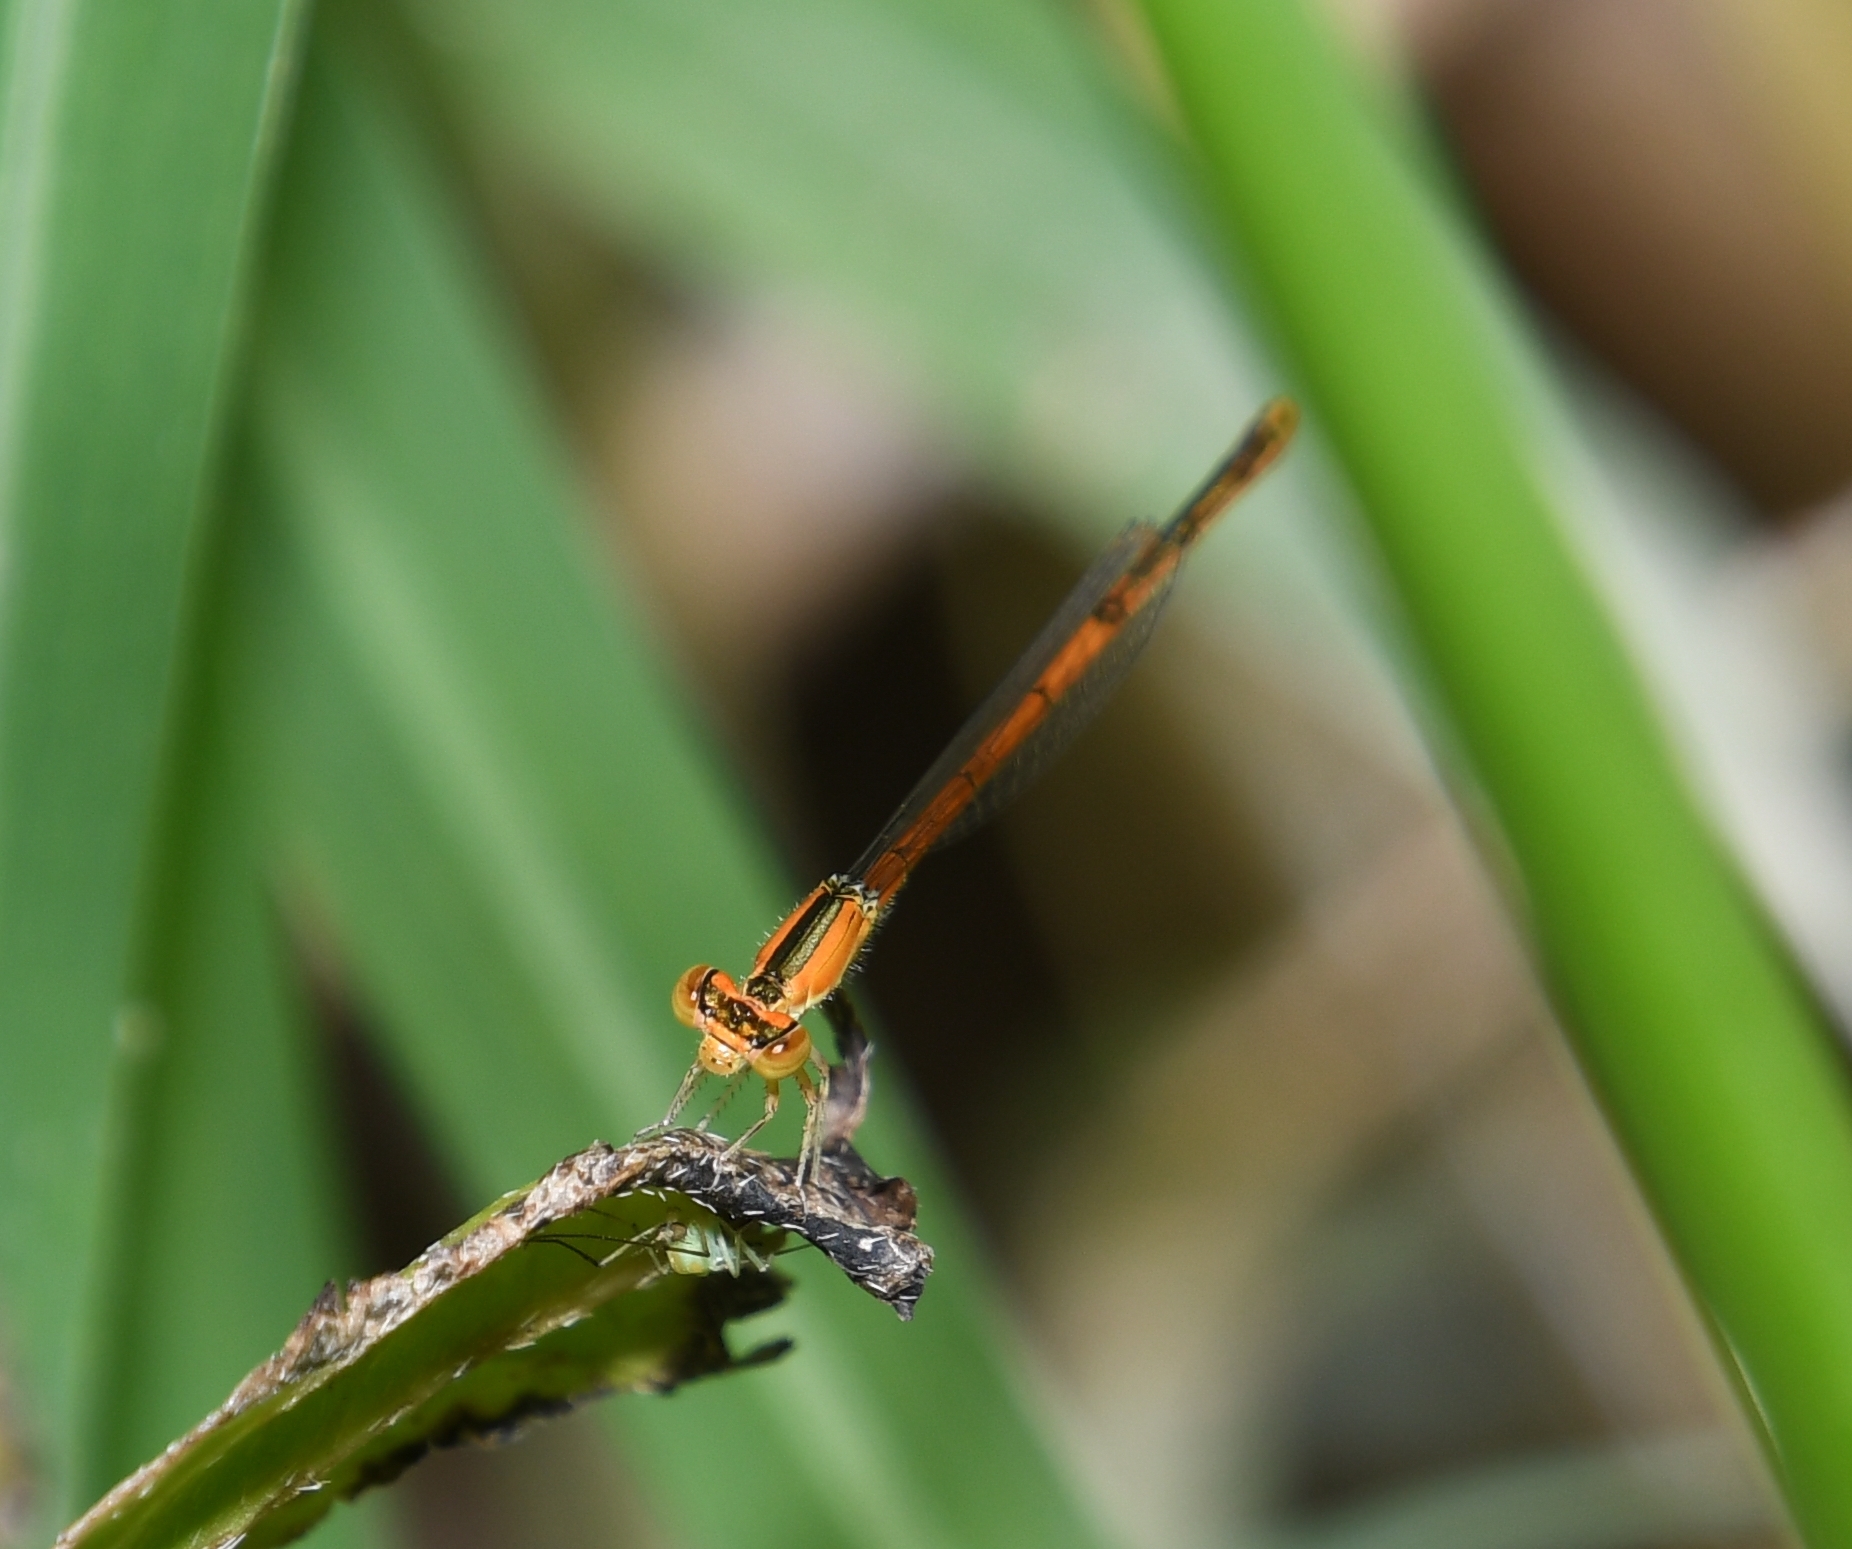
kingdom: Animalia
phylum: Arthropoda
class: Insecta
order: Odonata
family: Coenagrionidae
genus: Ischnura
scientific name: Ischnura hastata
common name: Citrine forktail
